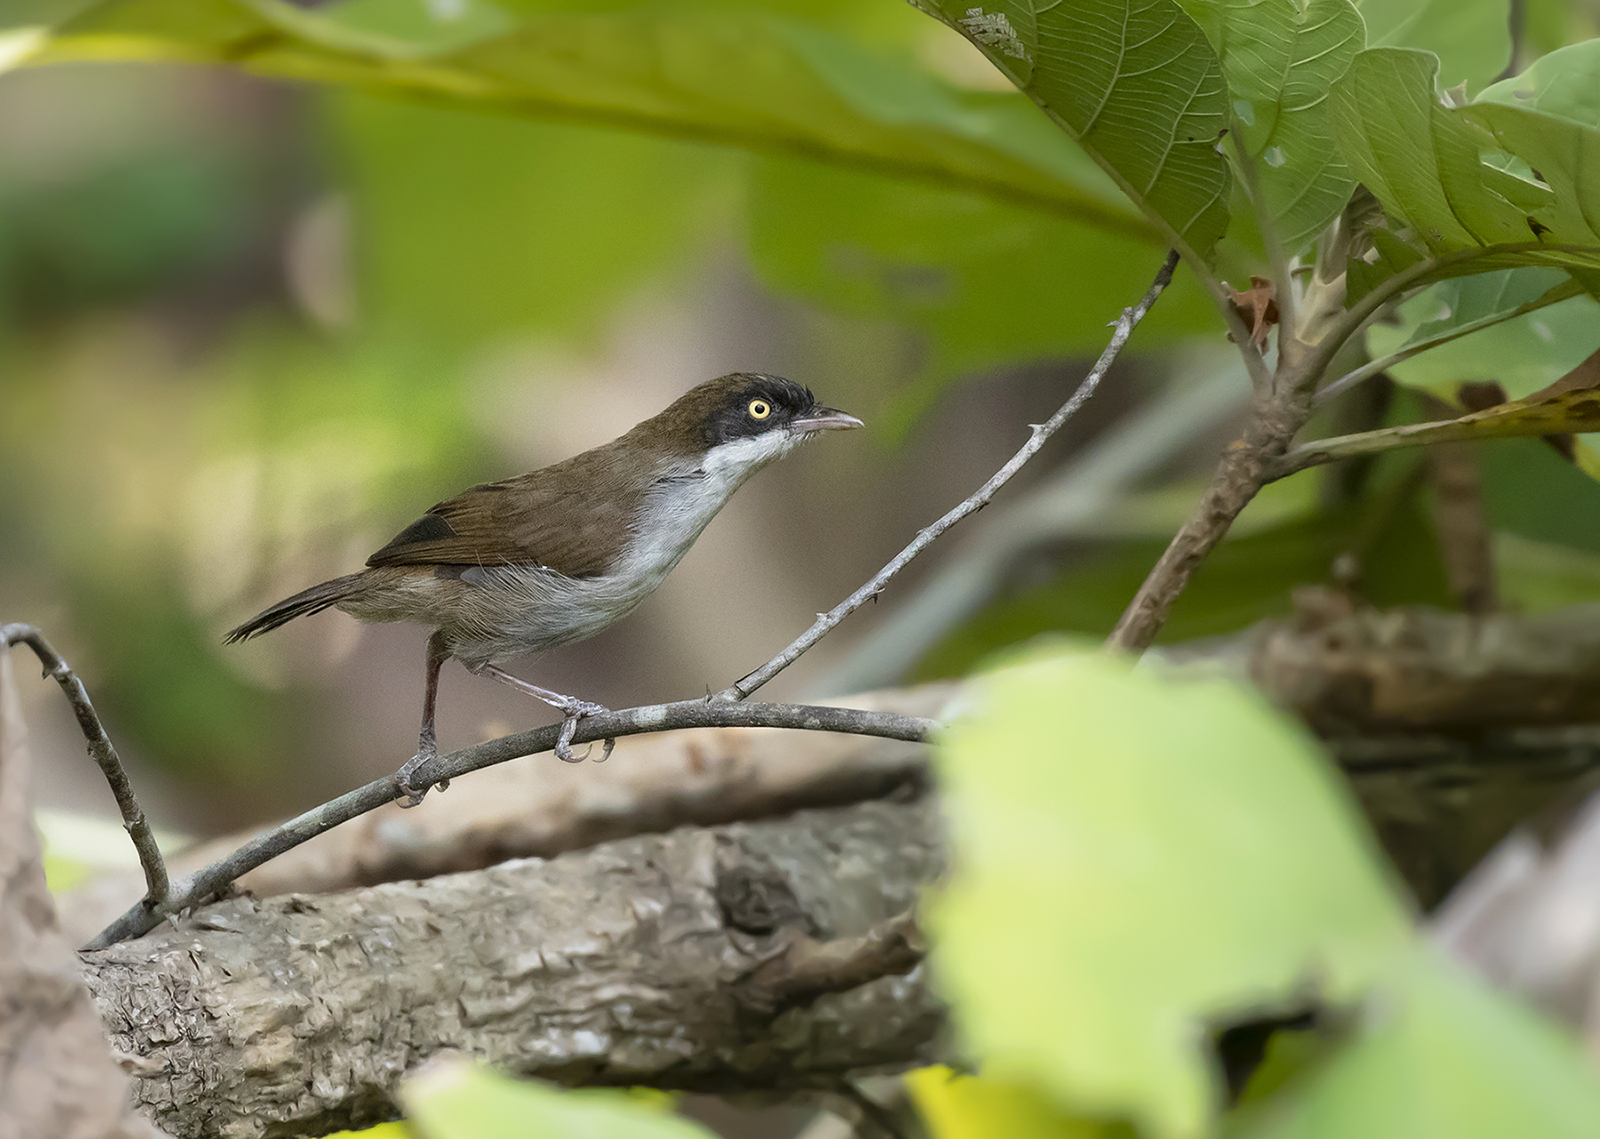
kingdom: Animalia
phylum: Chordata
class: Aves
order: Passeriformes
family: Timaliidae
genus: Rhopocichla
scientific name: Rhopocichla atriceps
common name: Dark-fronted babbler
